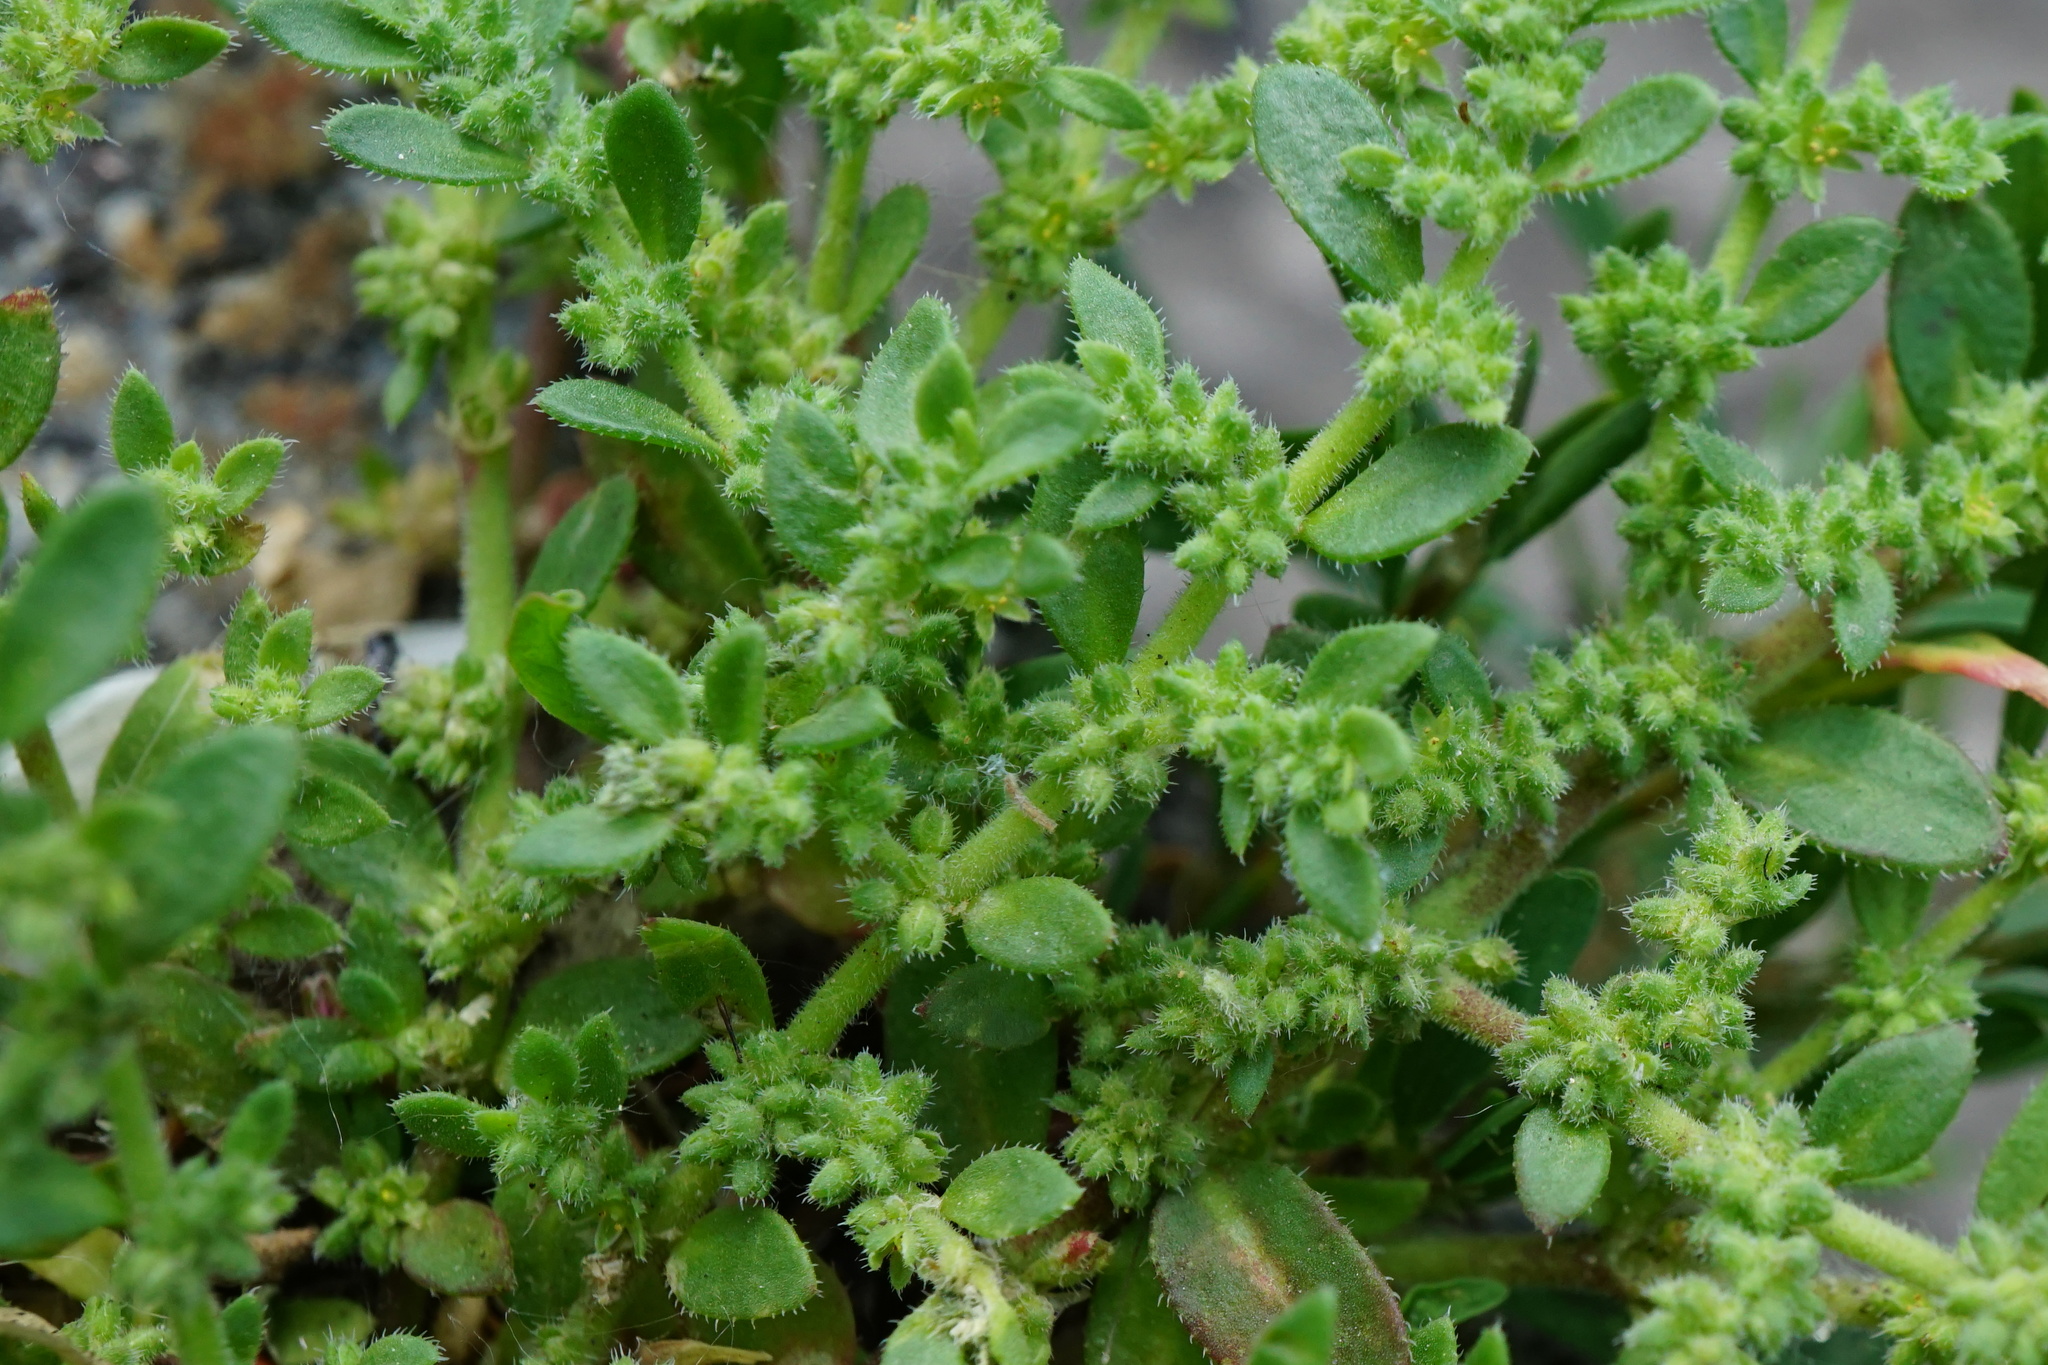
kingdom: Plantae
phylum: Tracheophyta
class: Magnoliopsida
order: Caryophyllales
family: Caryophyllaceae
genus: Herniaria
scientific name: Herniaria hirsuta
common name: Hairy rupturewort
